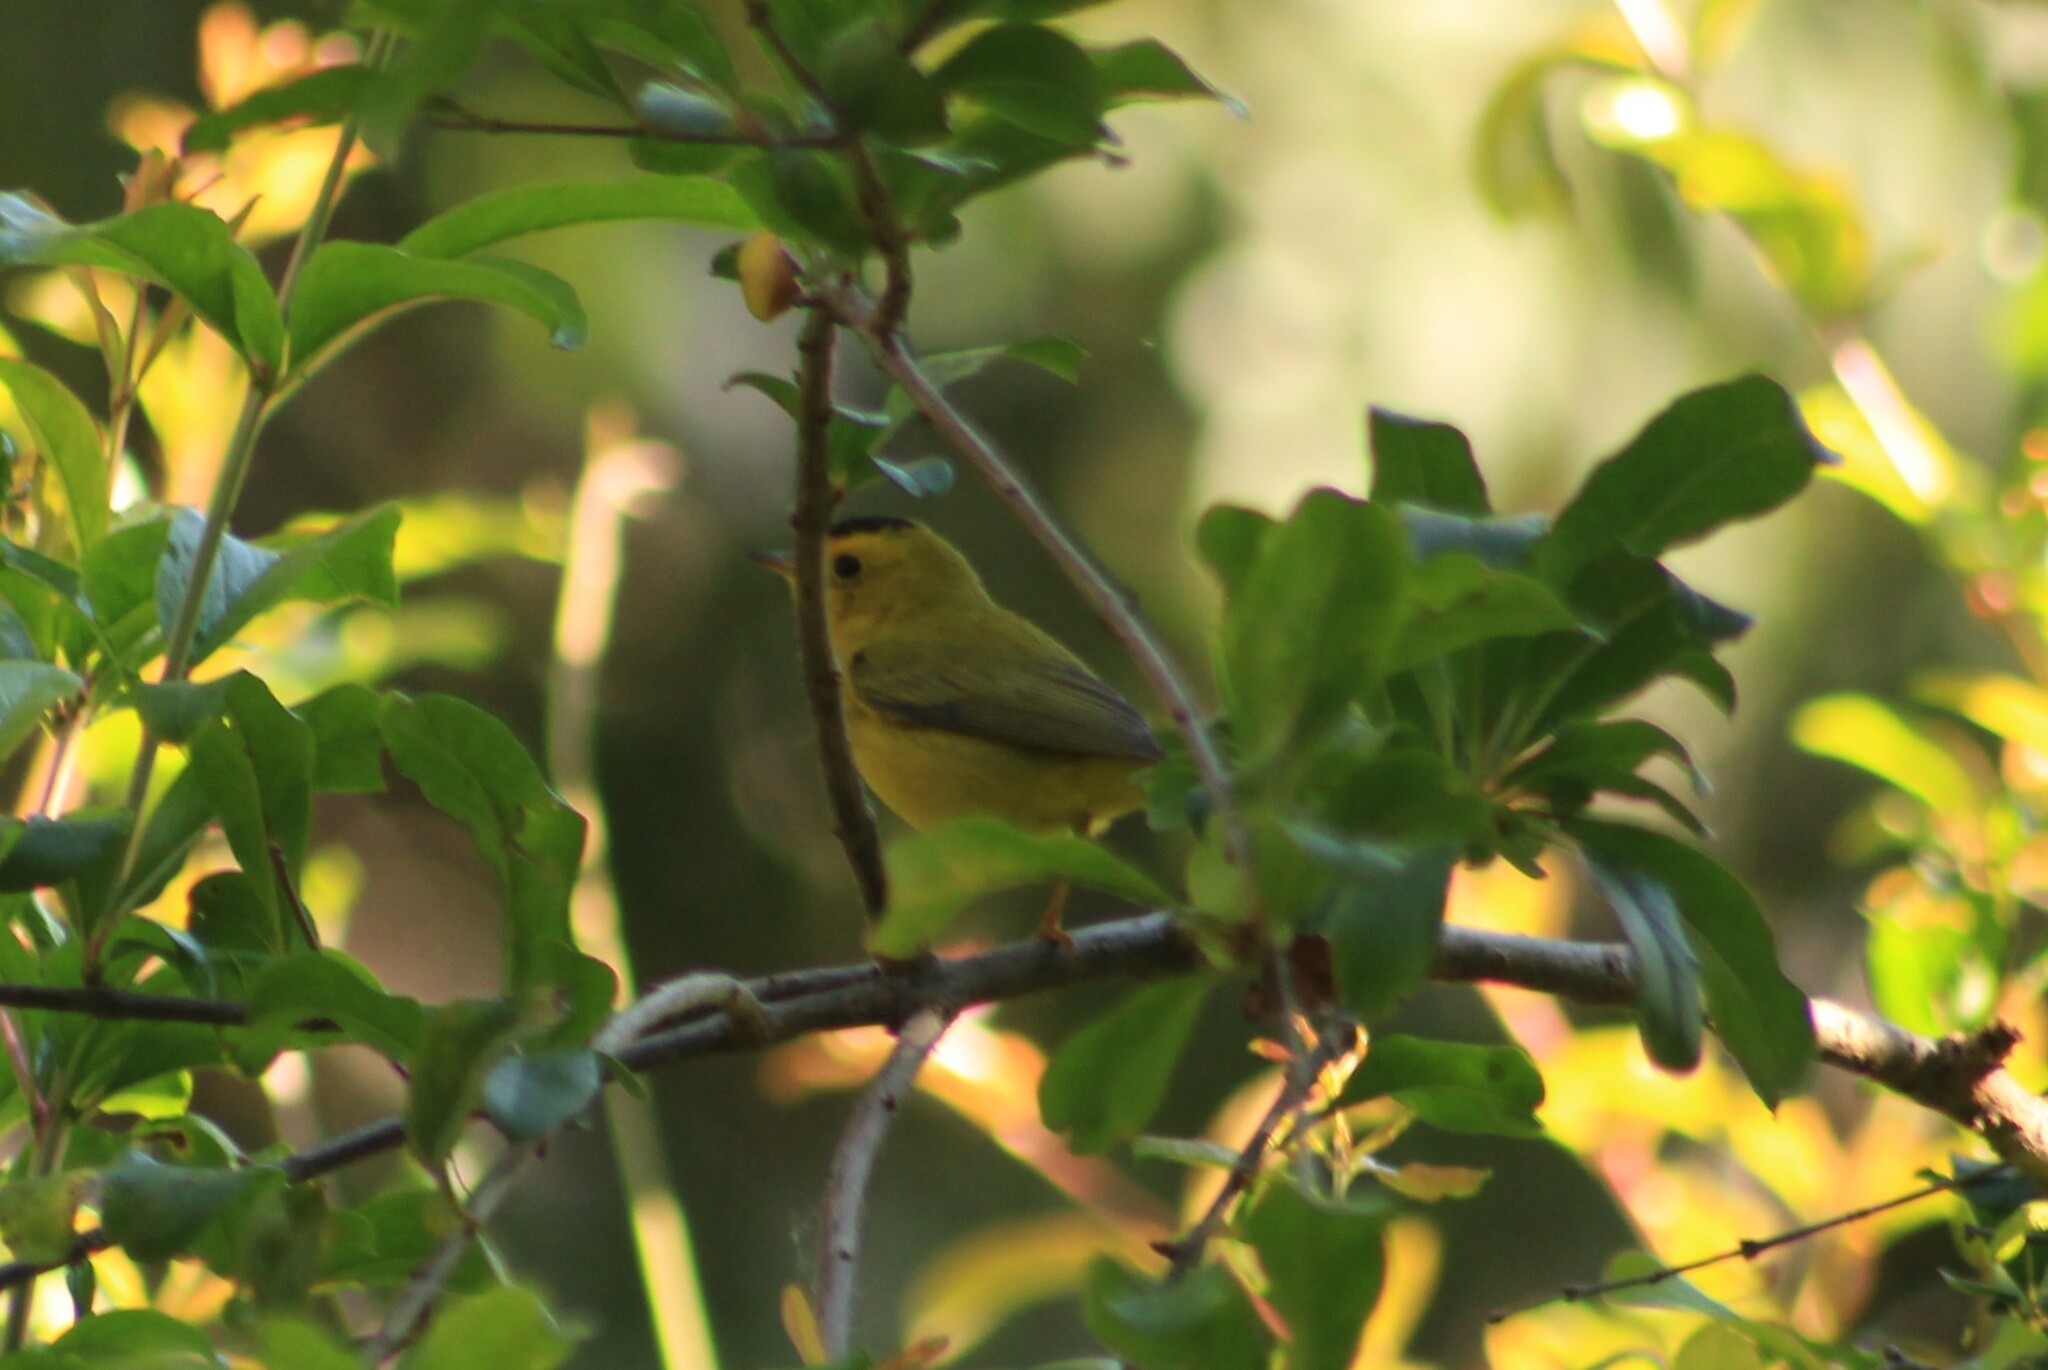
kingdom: Animalia
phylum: Chordata
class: Aves
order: Passeriformes
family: Parulidae
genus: Cardellina
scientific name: Cardellina pusilla
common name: Wilson's warbler
